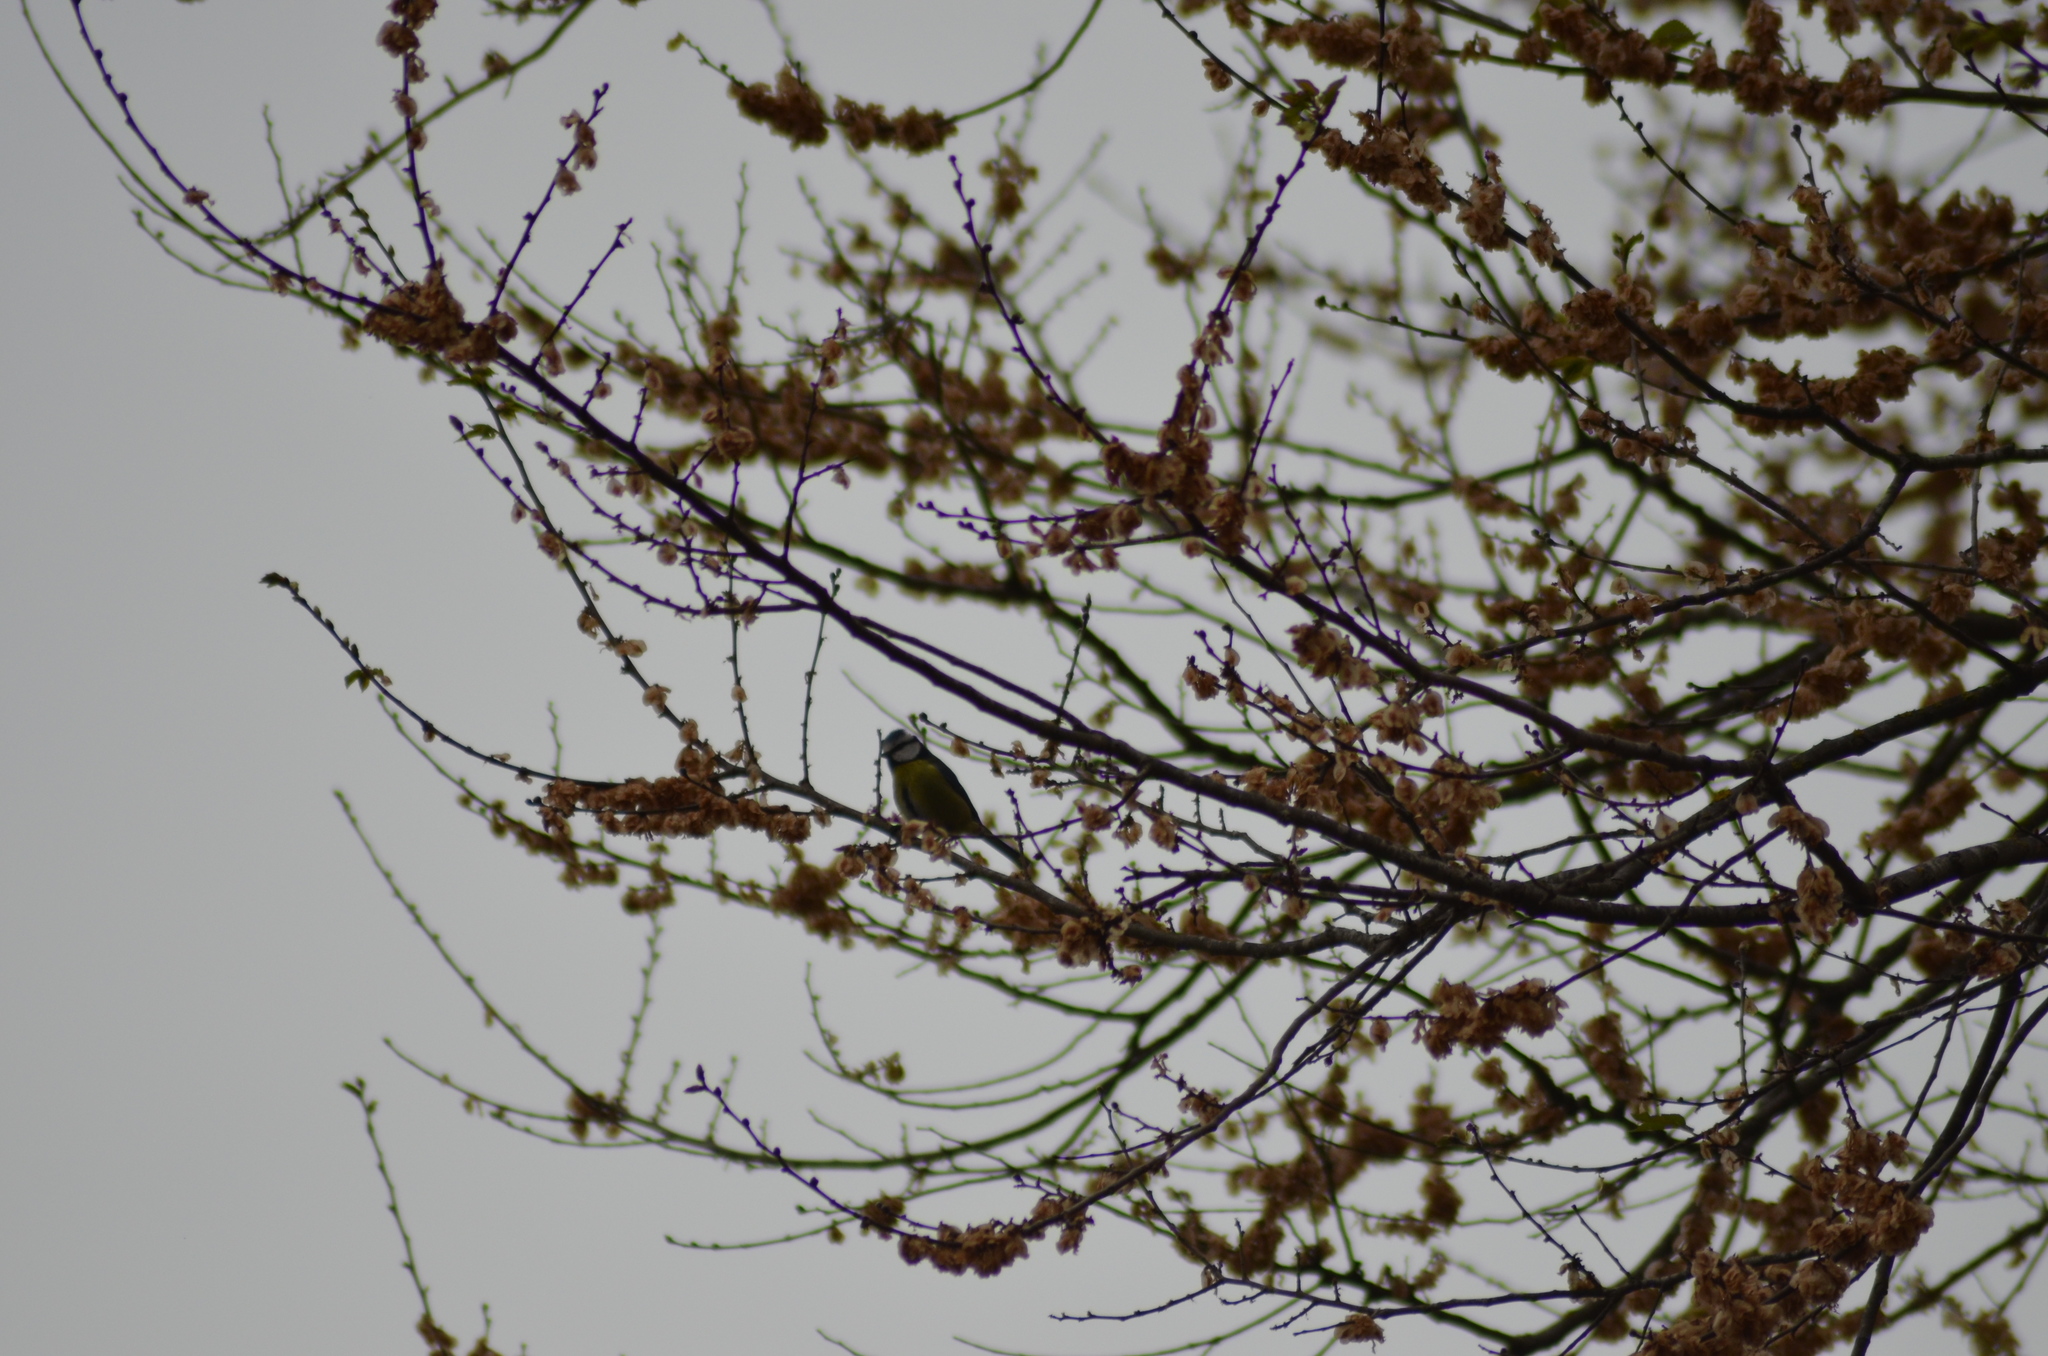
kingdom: Animalia
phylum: Chordata
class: Aves
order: Passeriformes
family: Paridae
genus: Cyanistes
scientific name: Cyanistes caeruleus
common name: Eurasian blue tit
